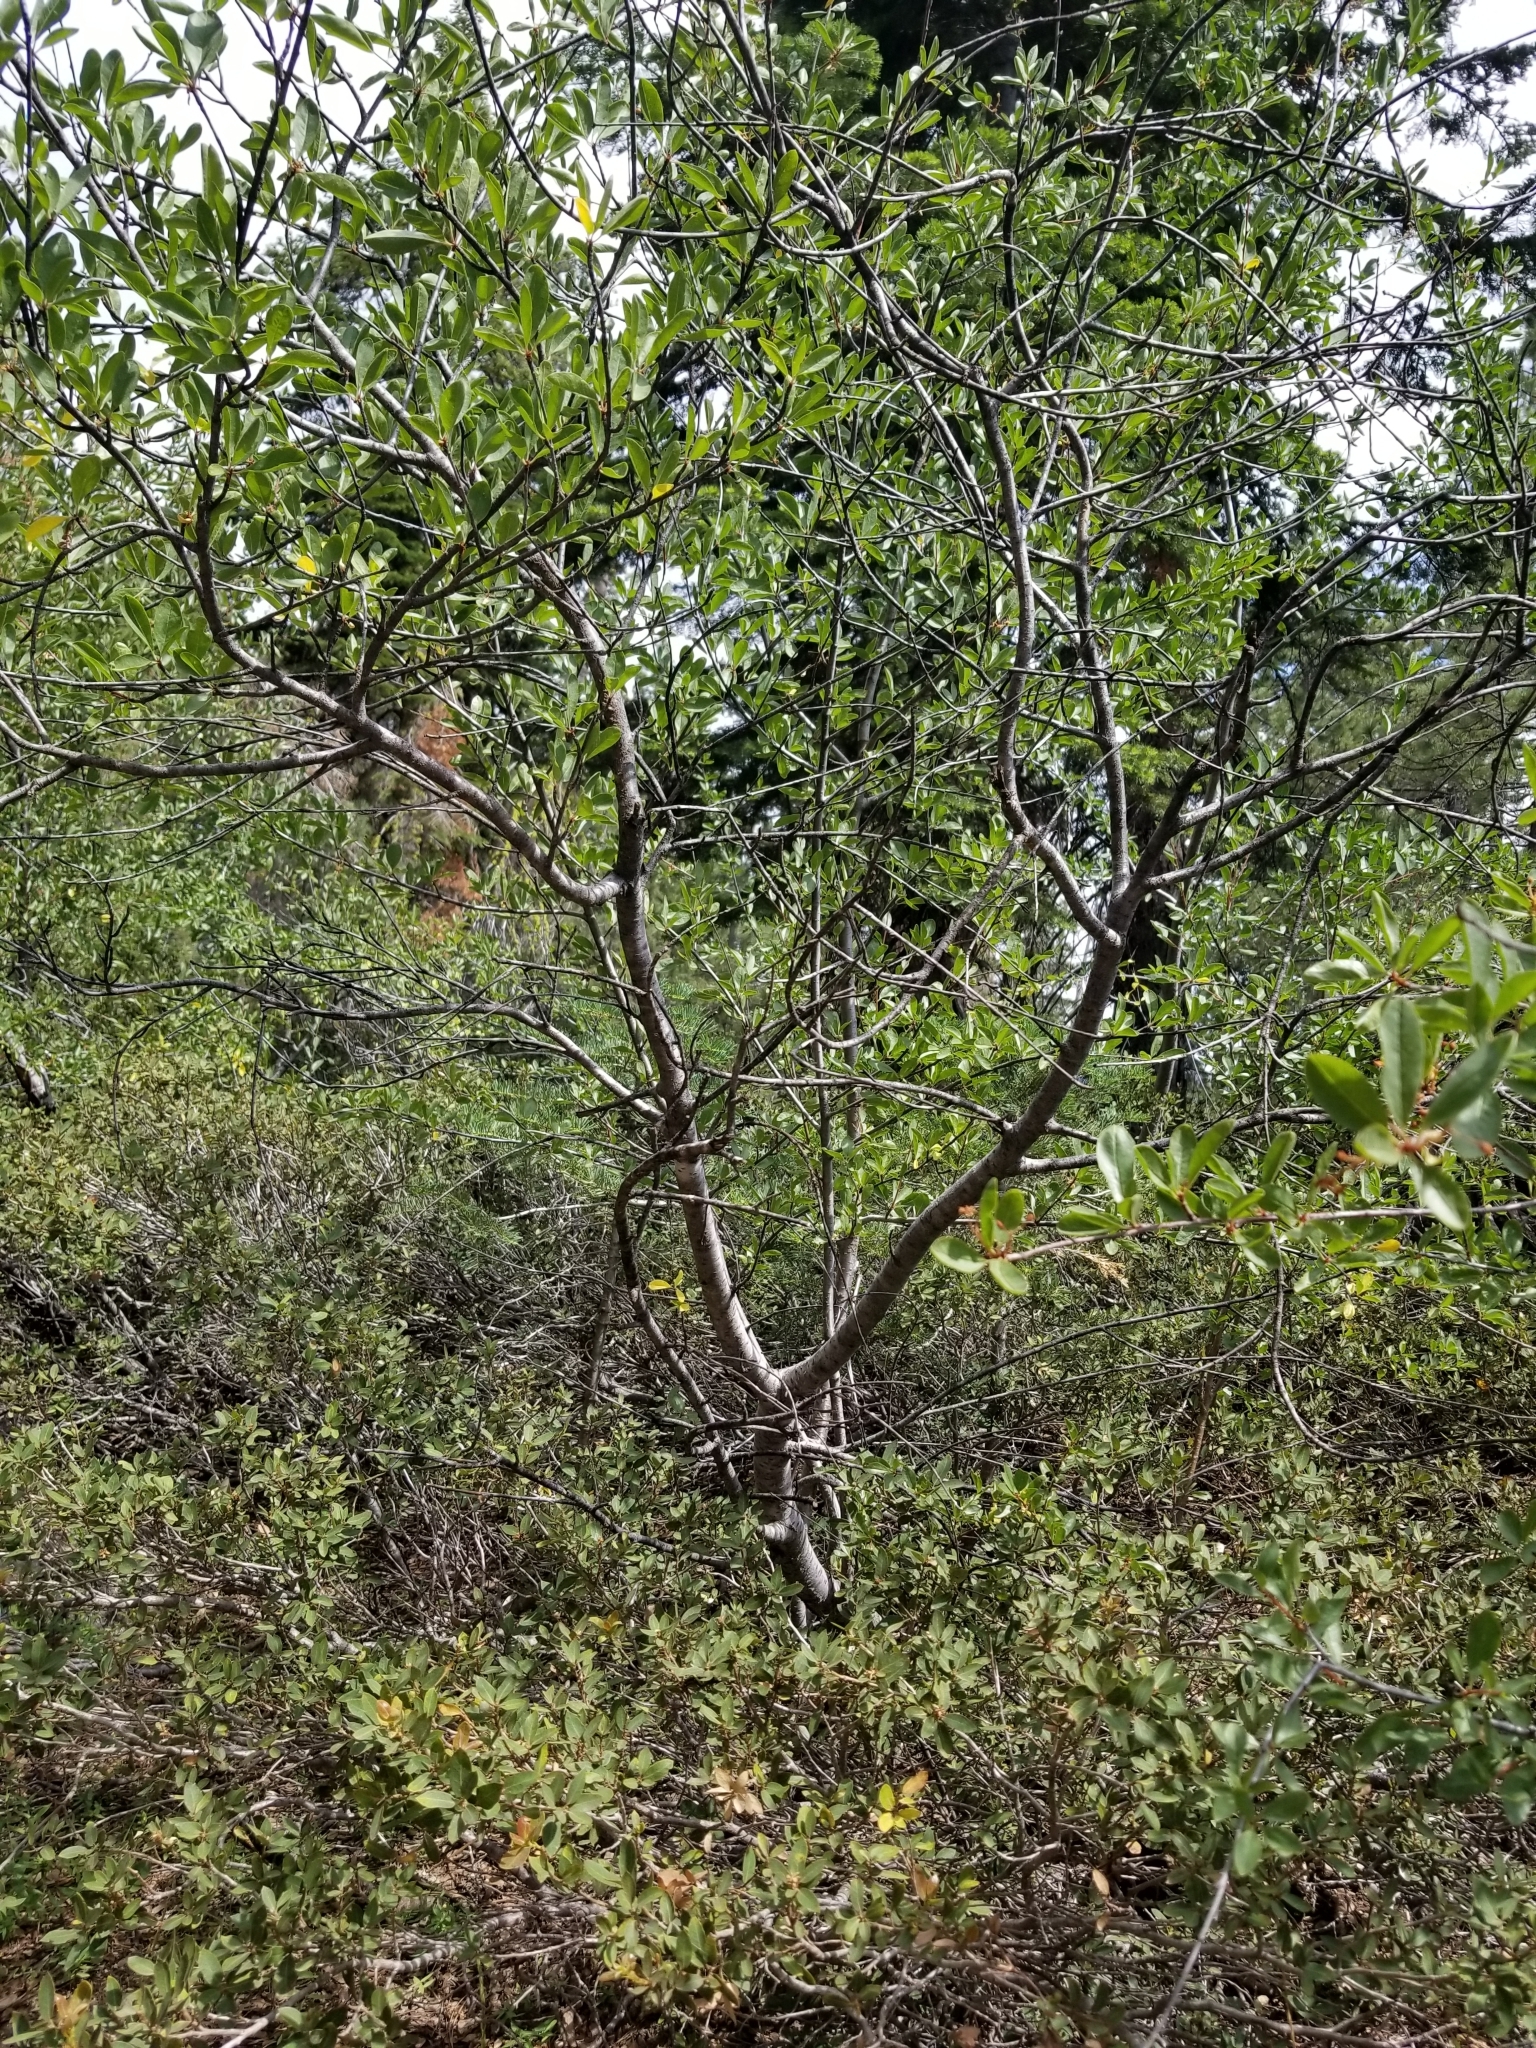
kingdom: Plantae
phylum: Tracheophyta
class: Magnoliopsida
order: Rosales
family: Rosaceae
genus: Prunus
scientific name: Prunus emarginata
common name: Bitter cherry
